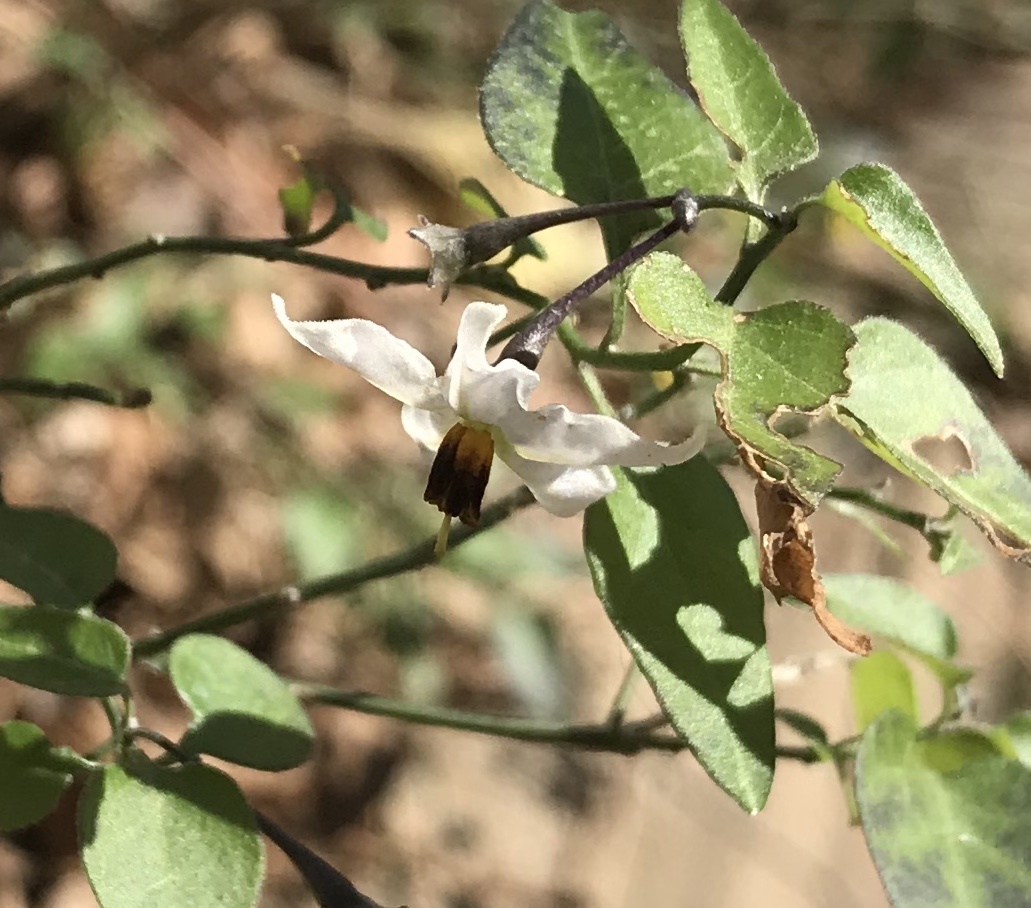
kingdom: Plantae
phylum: Tracheophyta
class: Magnoliopsida
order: Solanales
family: Solanaceae
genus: Solanum
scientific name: Solanum triquetrum
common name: Texas nightshade
